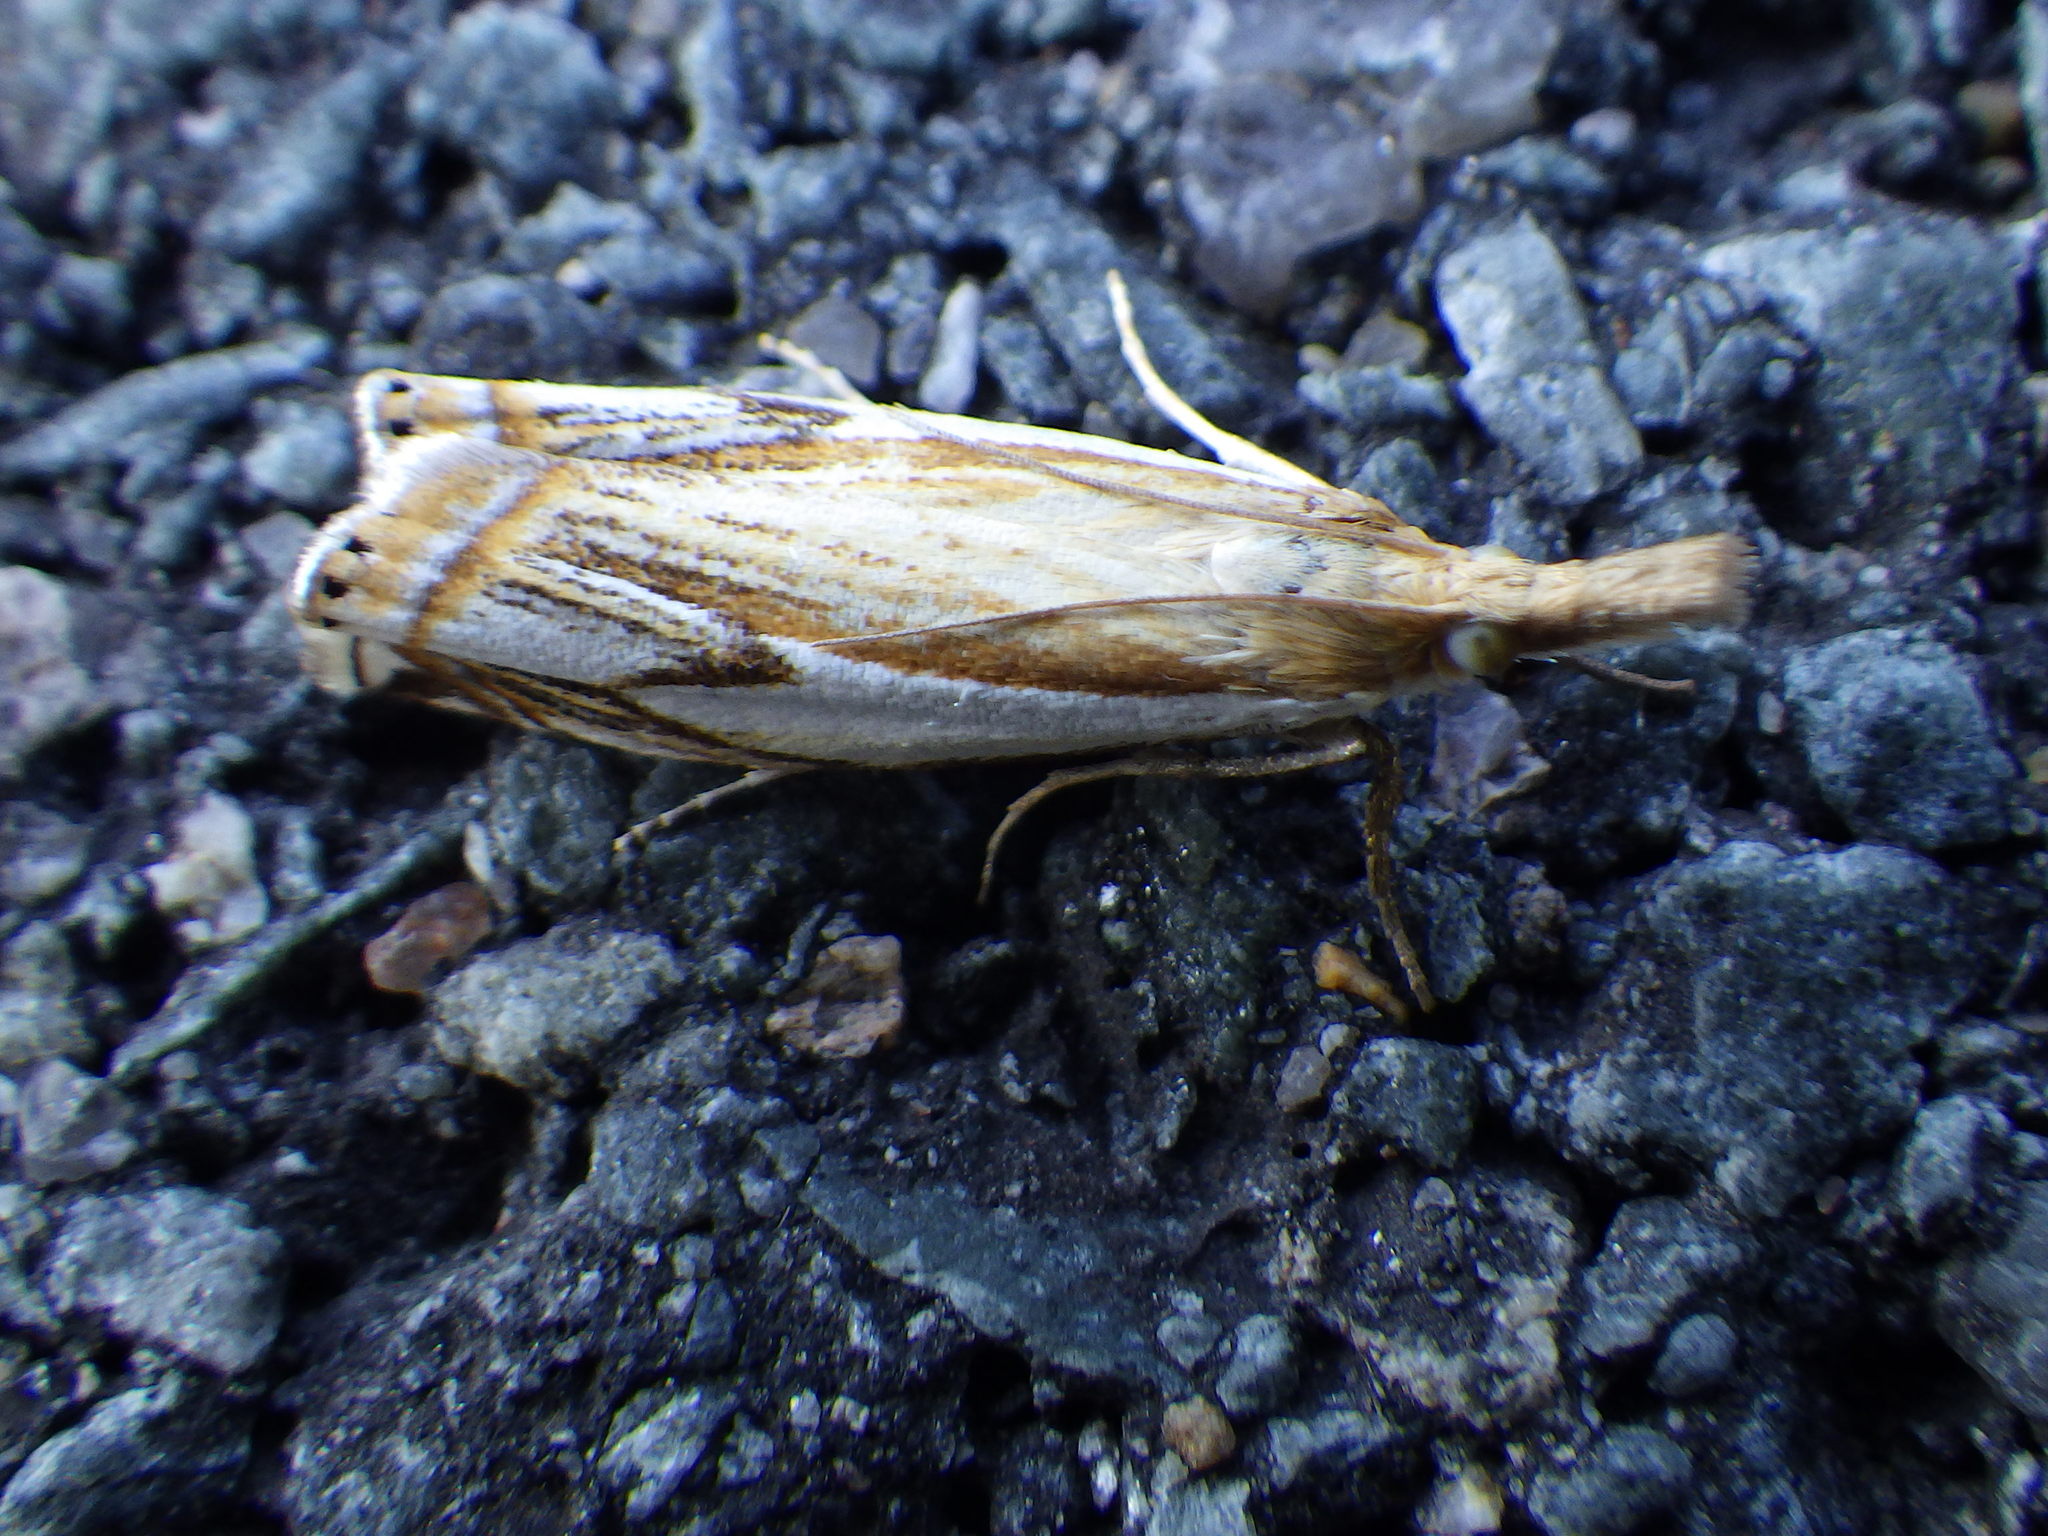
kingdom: Animalia
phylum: Arthropoda
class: Insecta
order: Lepidoptera
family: Crambidae
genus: Crambus
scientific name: Crambus agitatellus
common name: Double-banded grass-veneer
